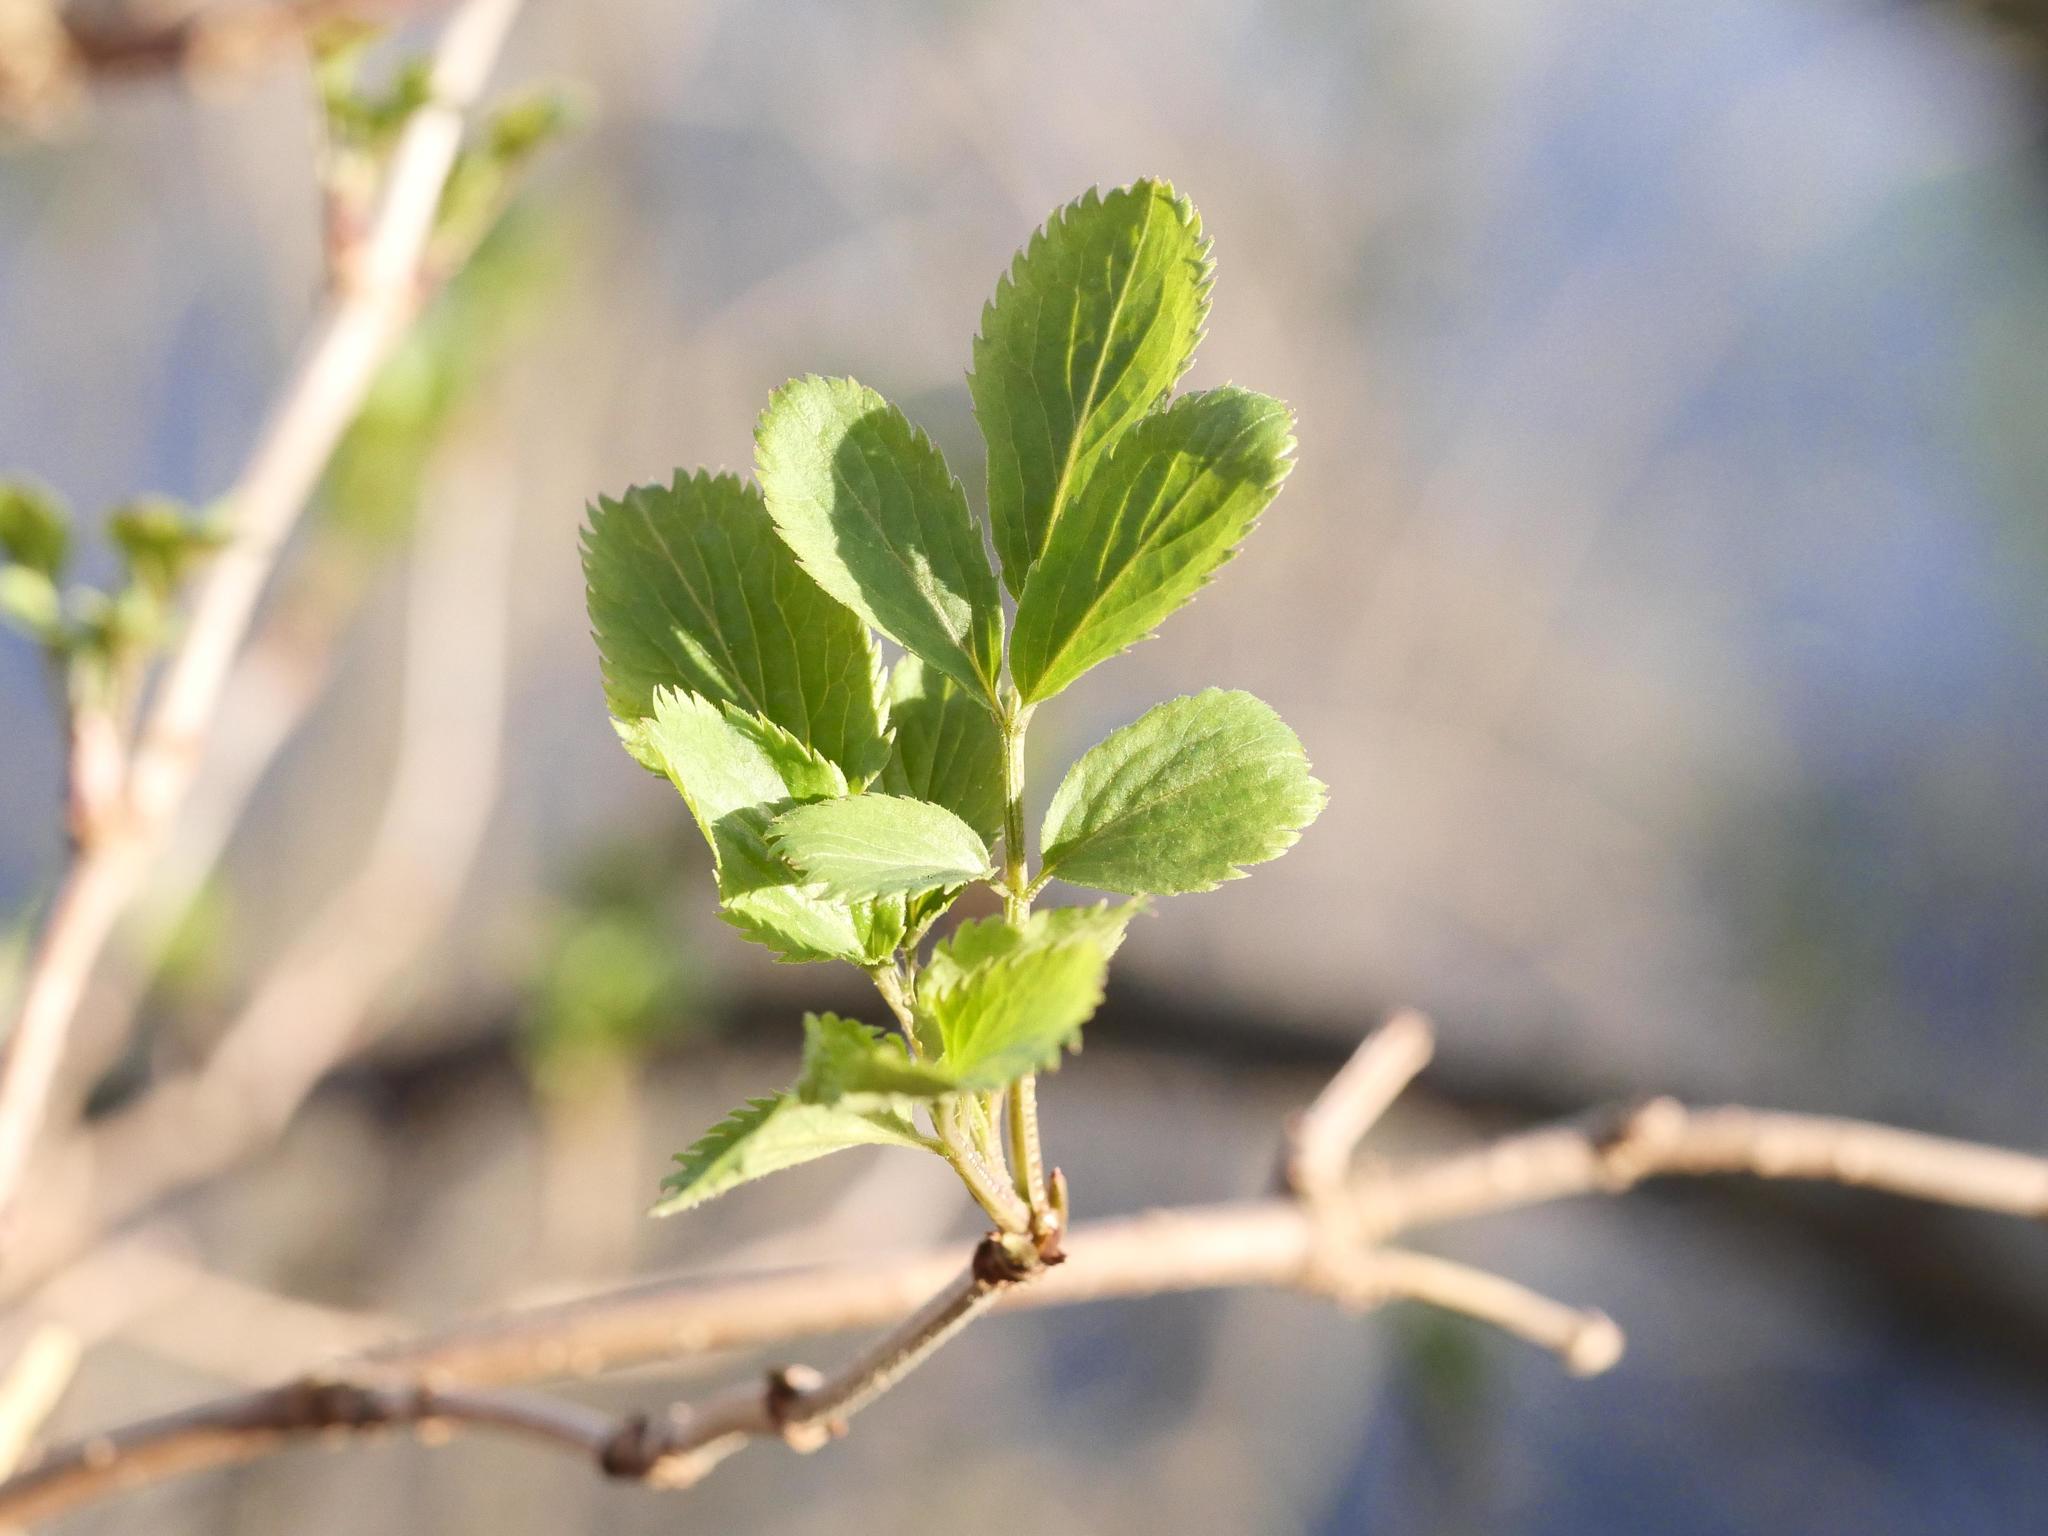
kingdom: Plantae
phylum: Tracheophyta
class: Magnoliopsida
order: Dipsacales
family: Viburnaceae
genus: Sambucus
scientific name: Sambucus nigra
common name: Elder
